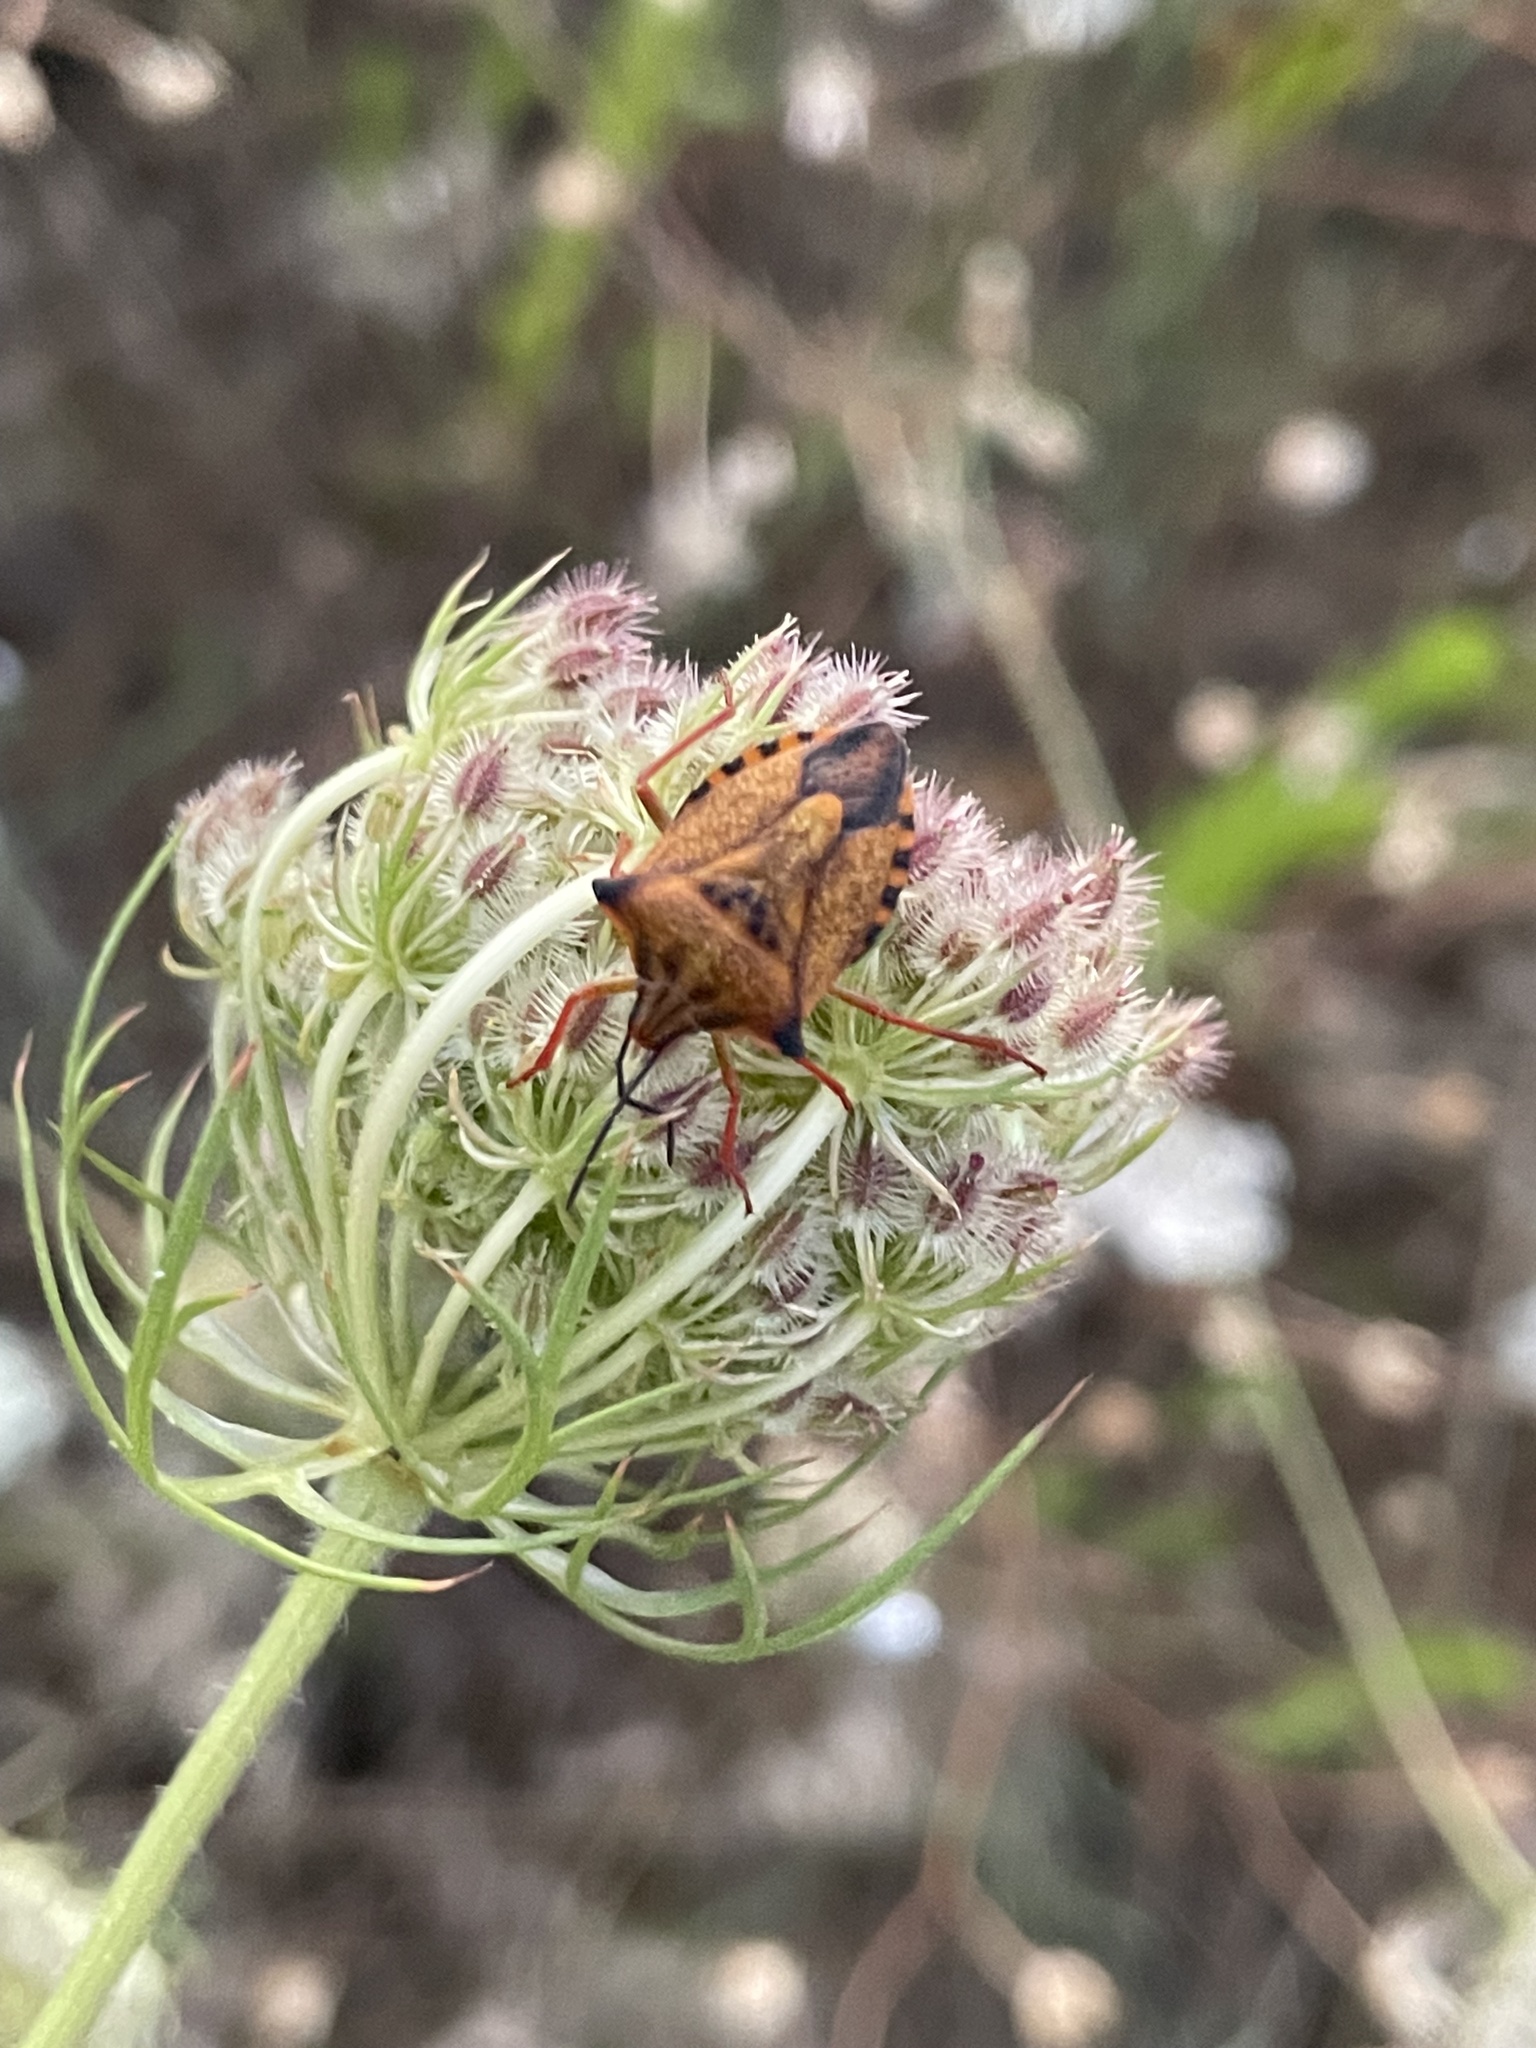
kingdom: Animalia
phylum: Arthropoda
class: Insecta
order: Hemiptera
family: Pentatomidae
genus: Carpocoris
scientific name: Carpocoris mediterraneus
